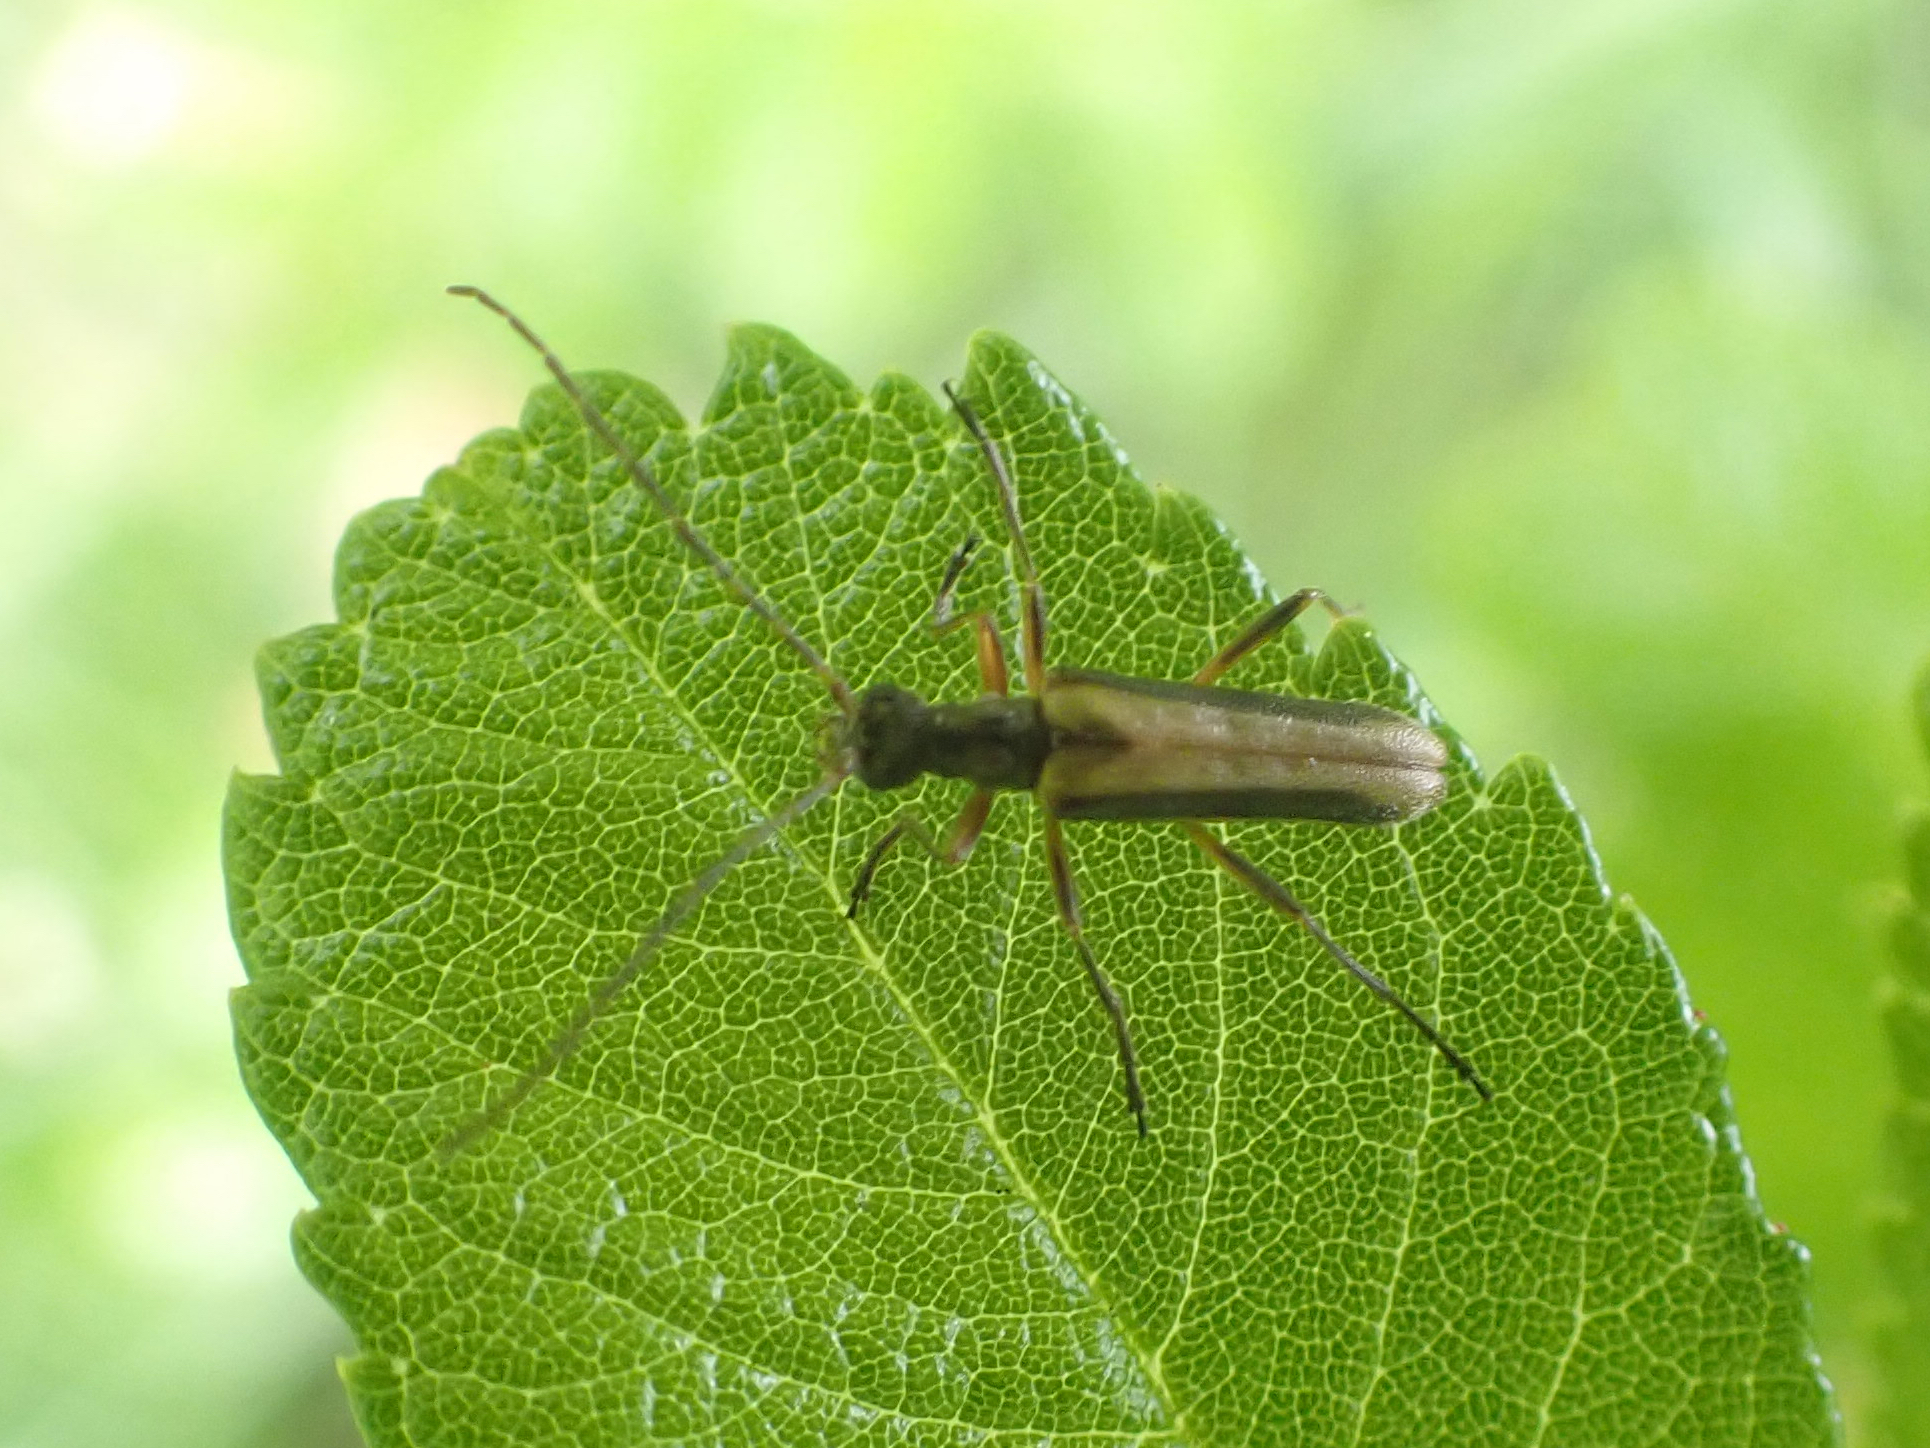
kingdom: Animalia
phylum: Arthropoda
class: Insecta
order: Coleoptera
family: Cerambycidae
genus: Leptalia
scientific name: Leptalia macilenta
